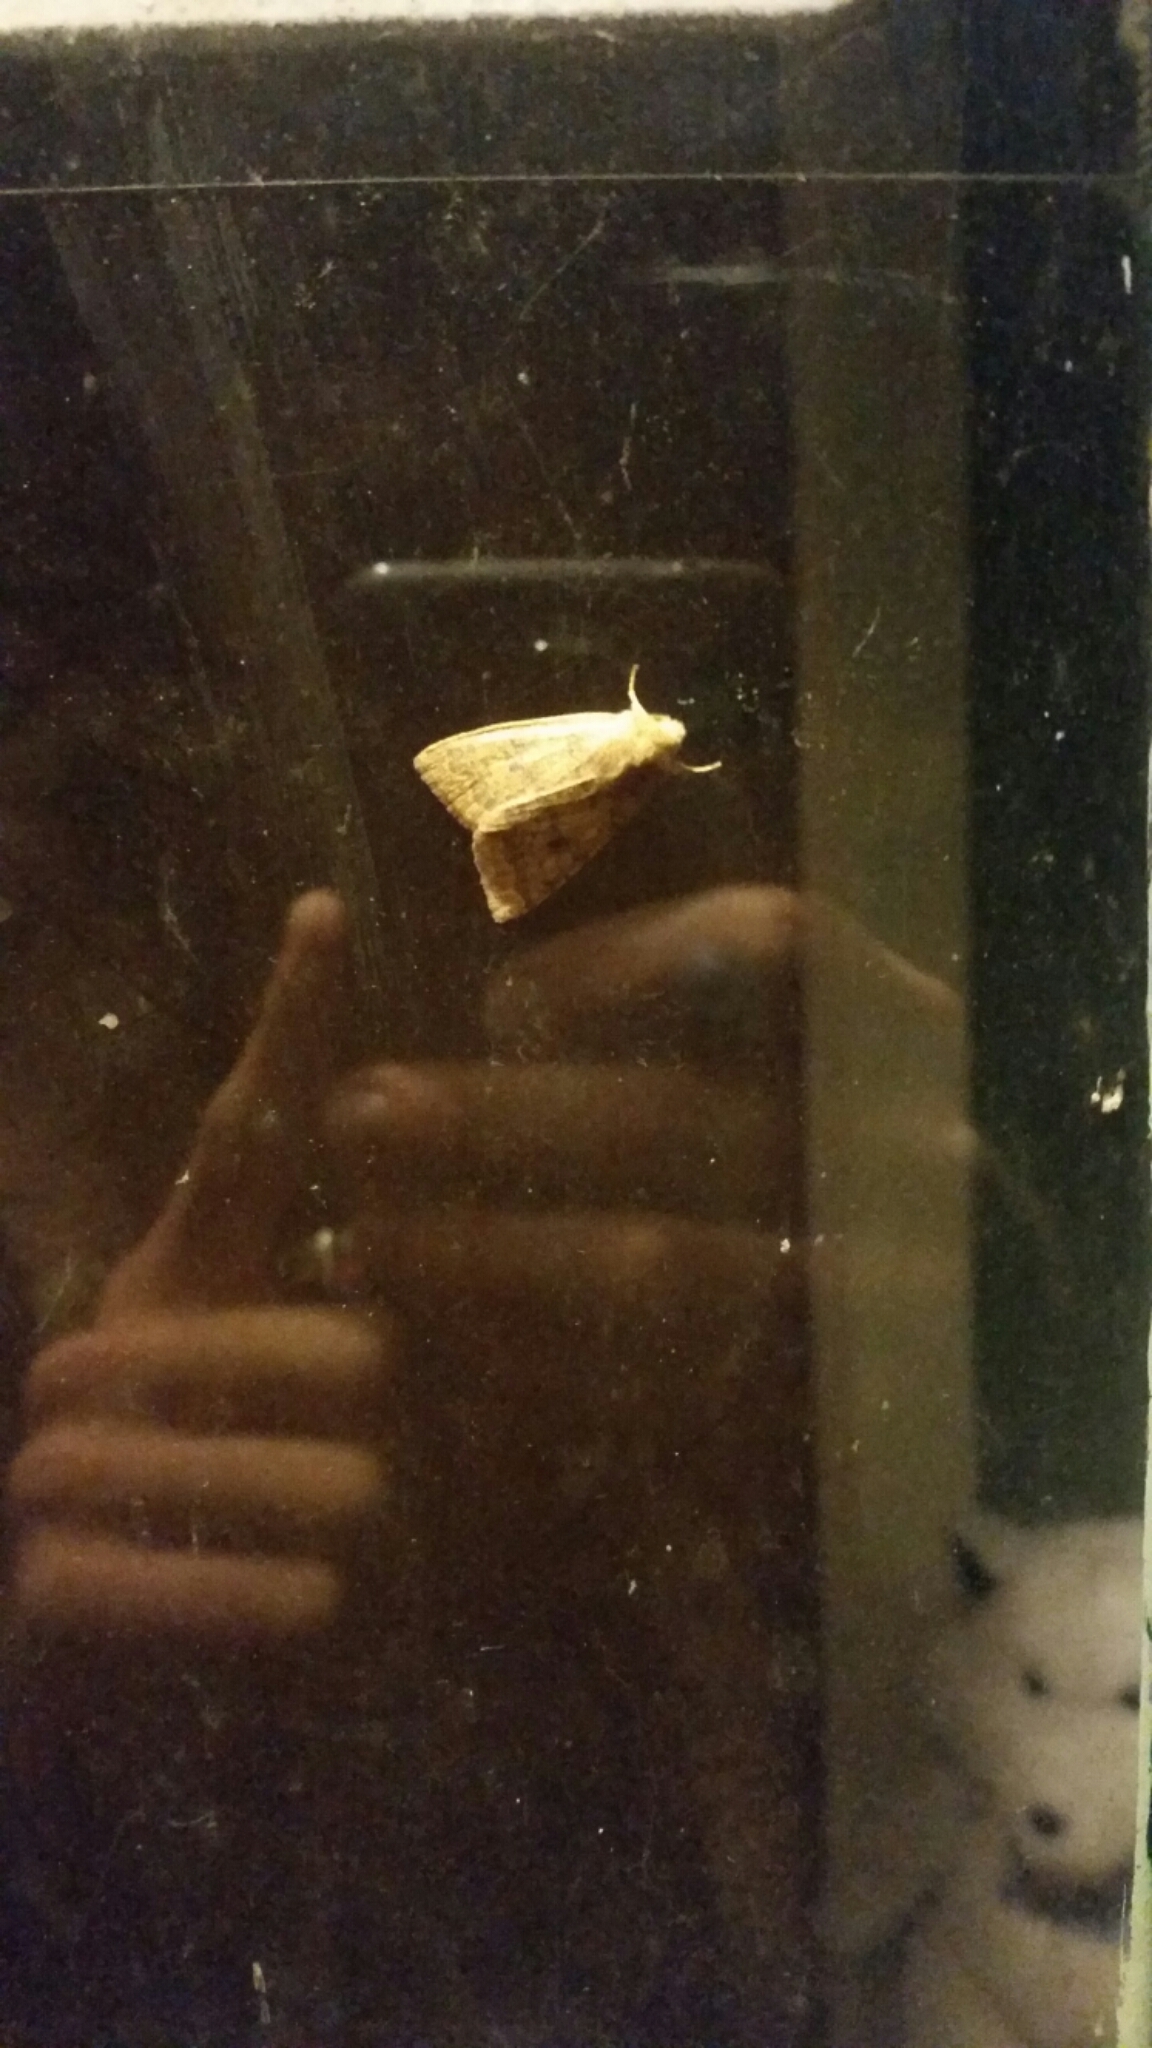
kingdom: Animalia
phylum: Arthropoda
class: Insecta
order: Lepidoptera
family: Noctuidae
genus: Agrochola
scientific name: Agrochola bicolorago
